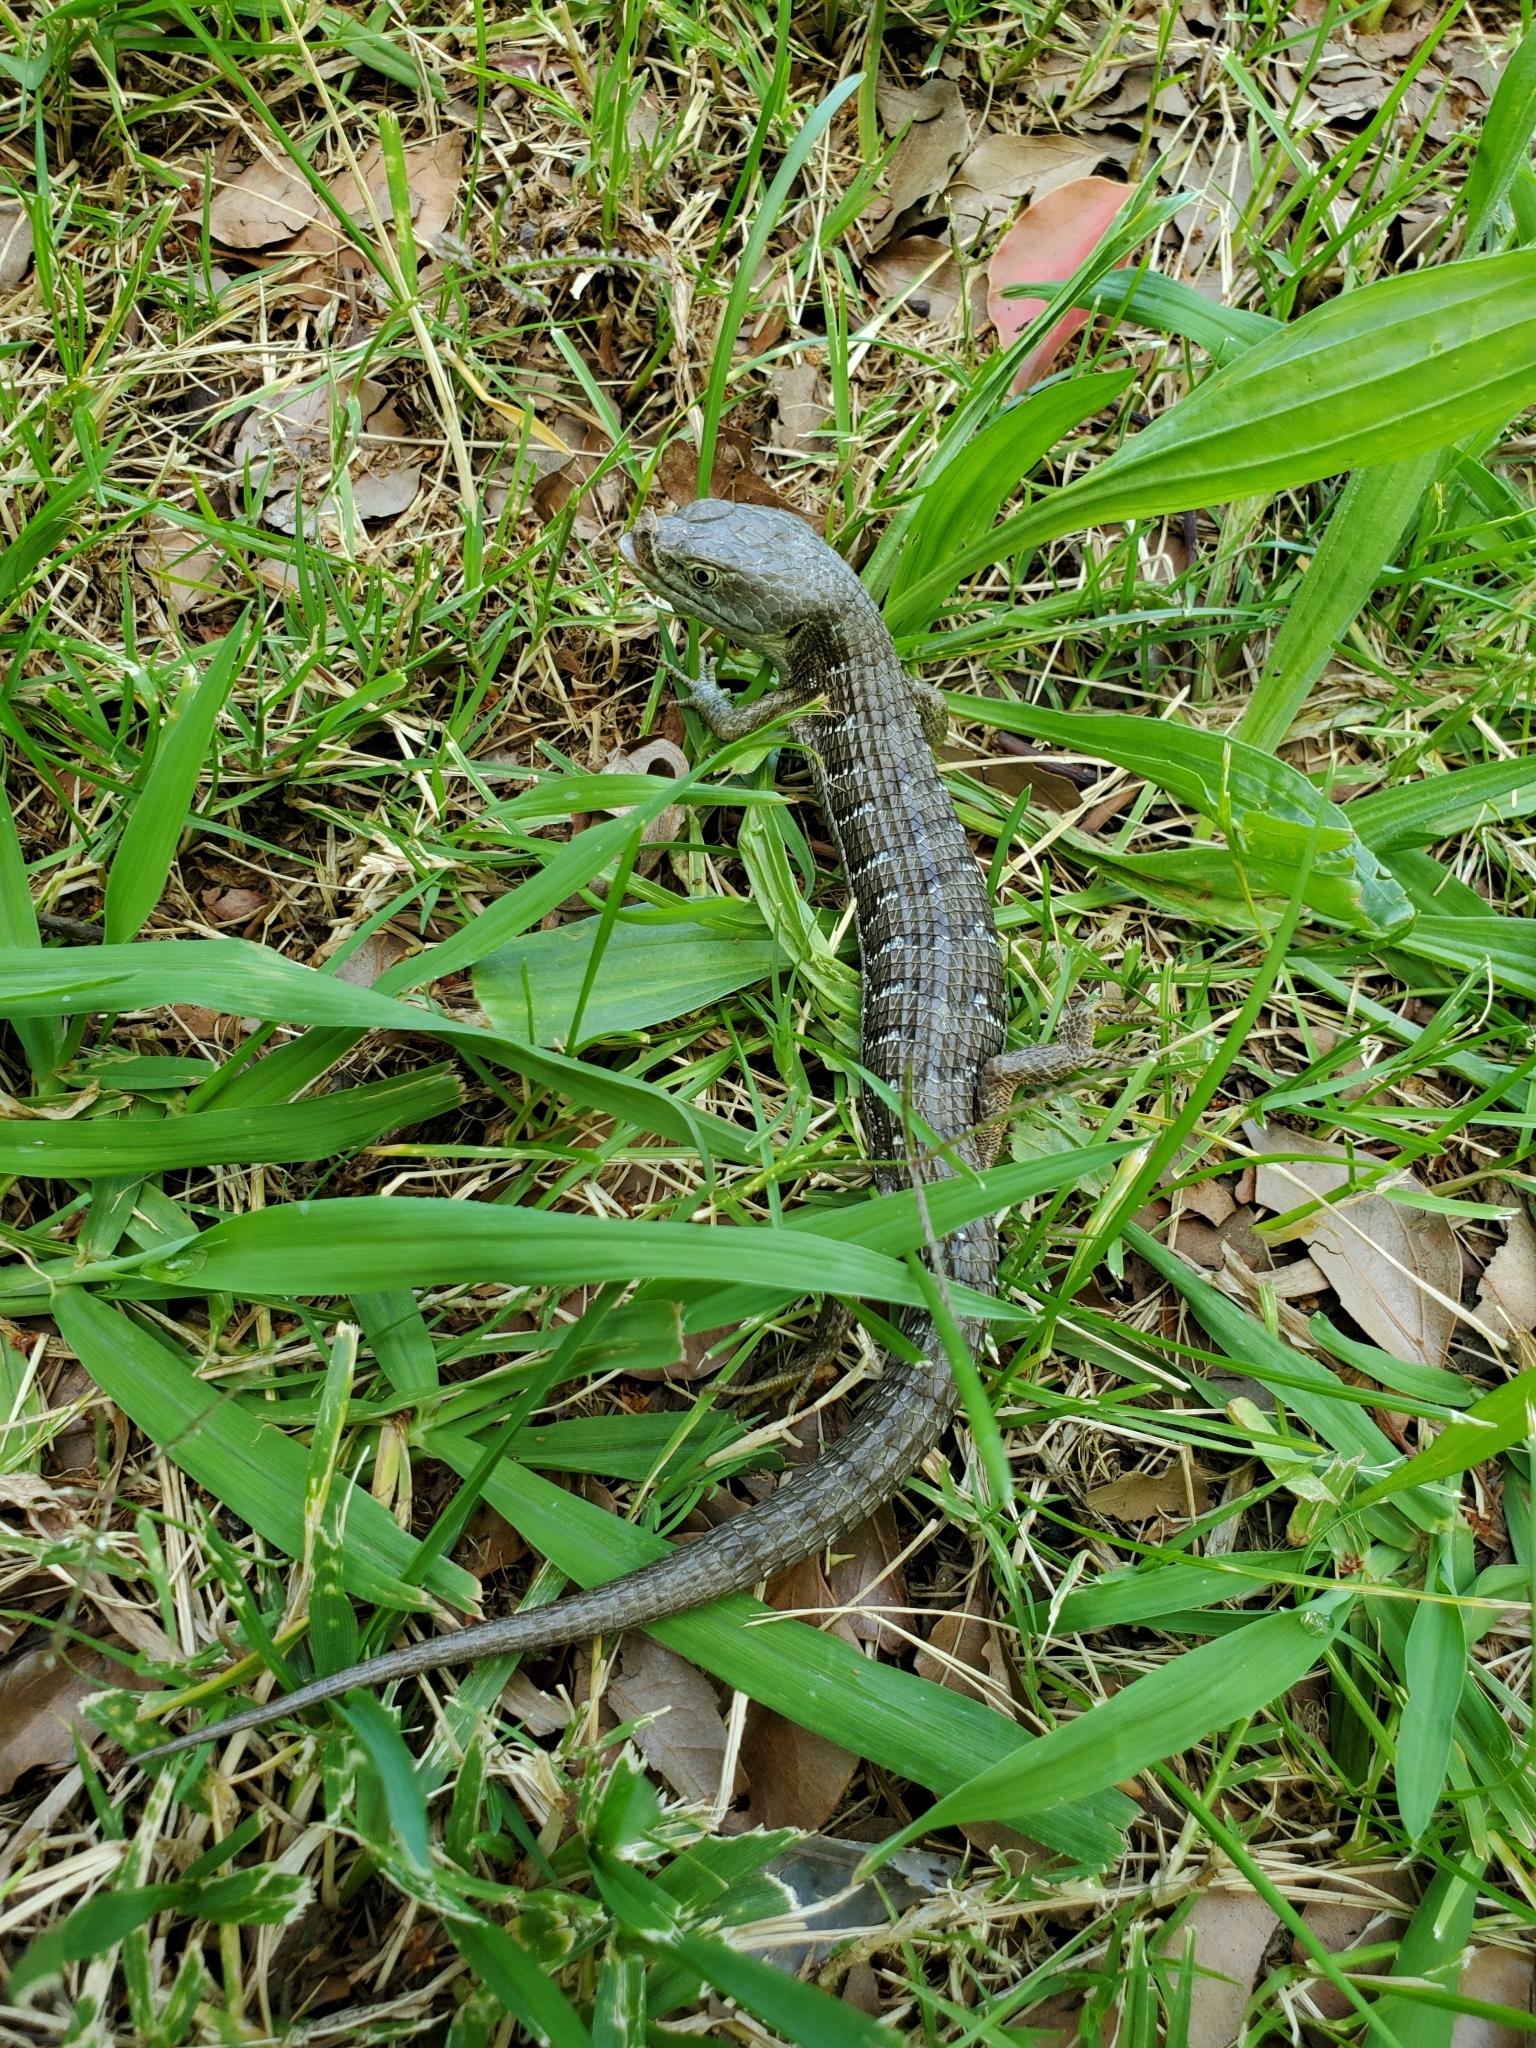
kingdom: Animalia
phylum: Chordata
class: Squamata
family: Anguidae
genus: Elgaria
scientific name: Elgaria multicarinata
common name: Southern alligator lizard
